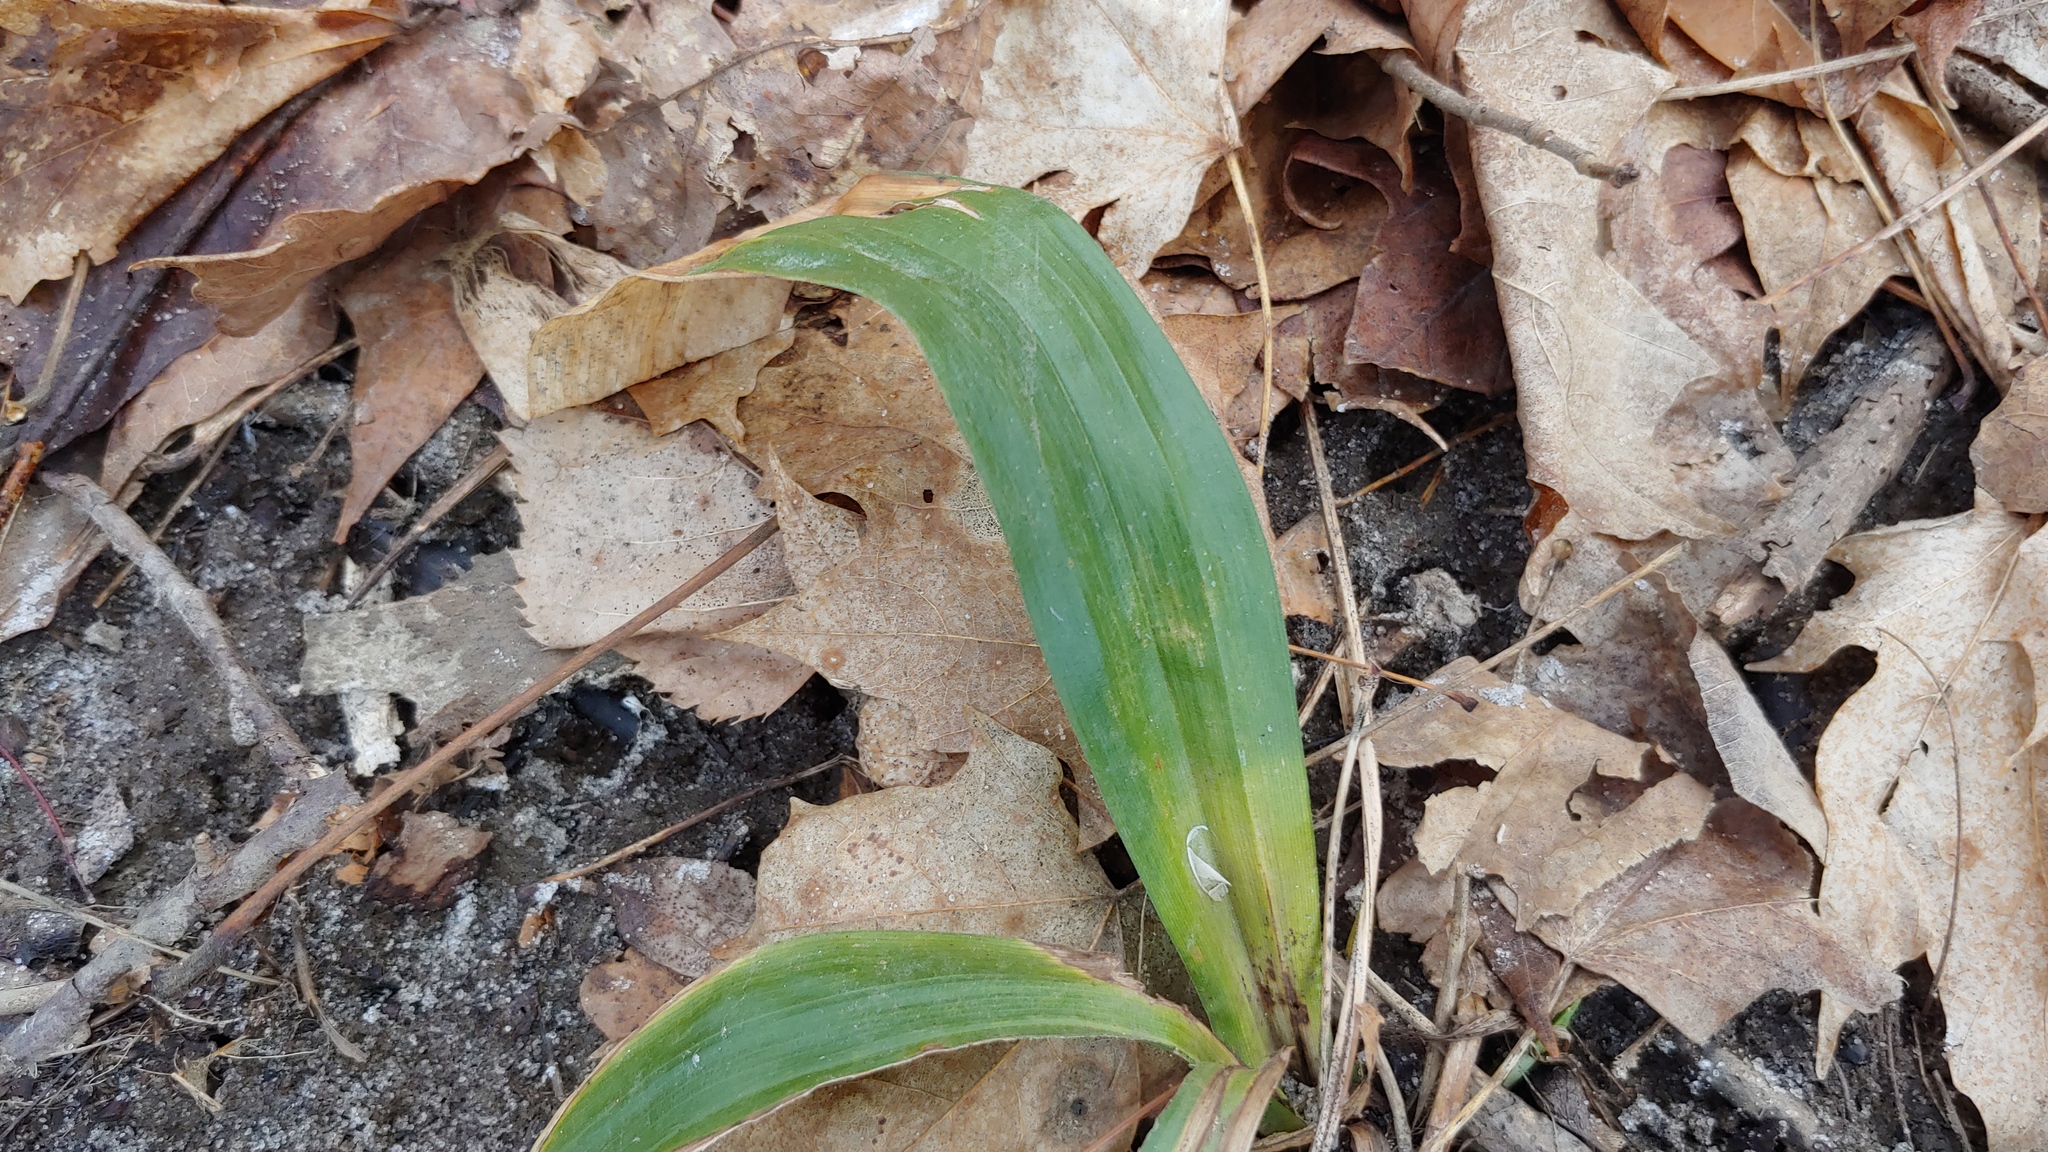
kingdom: Plantae
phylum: Tracheophyta
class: Liliopsida
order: Poales
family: Cyperaceae
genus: Carex
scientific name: Carex albursina
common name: Blunt-scale wood sedge
